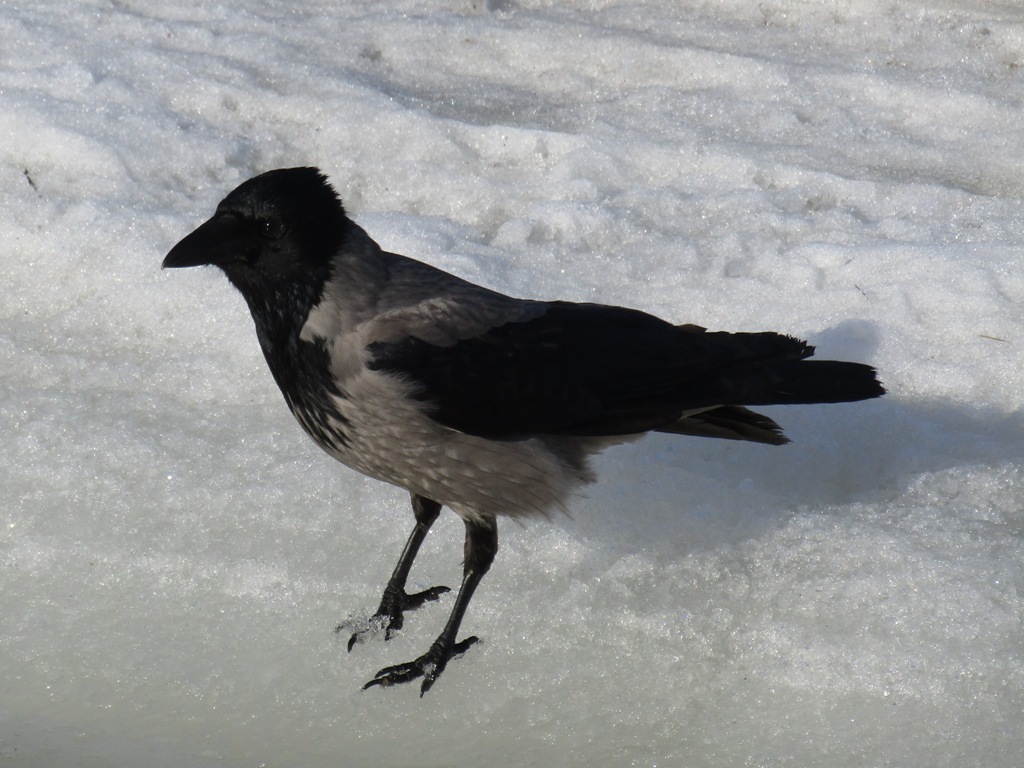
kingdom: Animalia
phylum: Chordata
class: Aves
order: Passeriformes
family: Corvidae
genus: Corvus
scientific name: Corvus cornix
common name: Hooded crow
